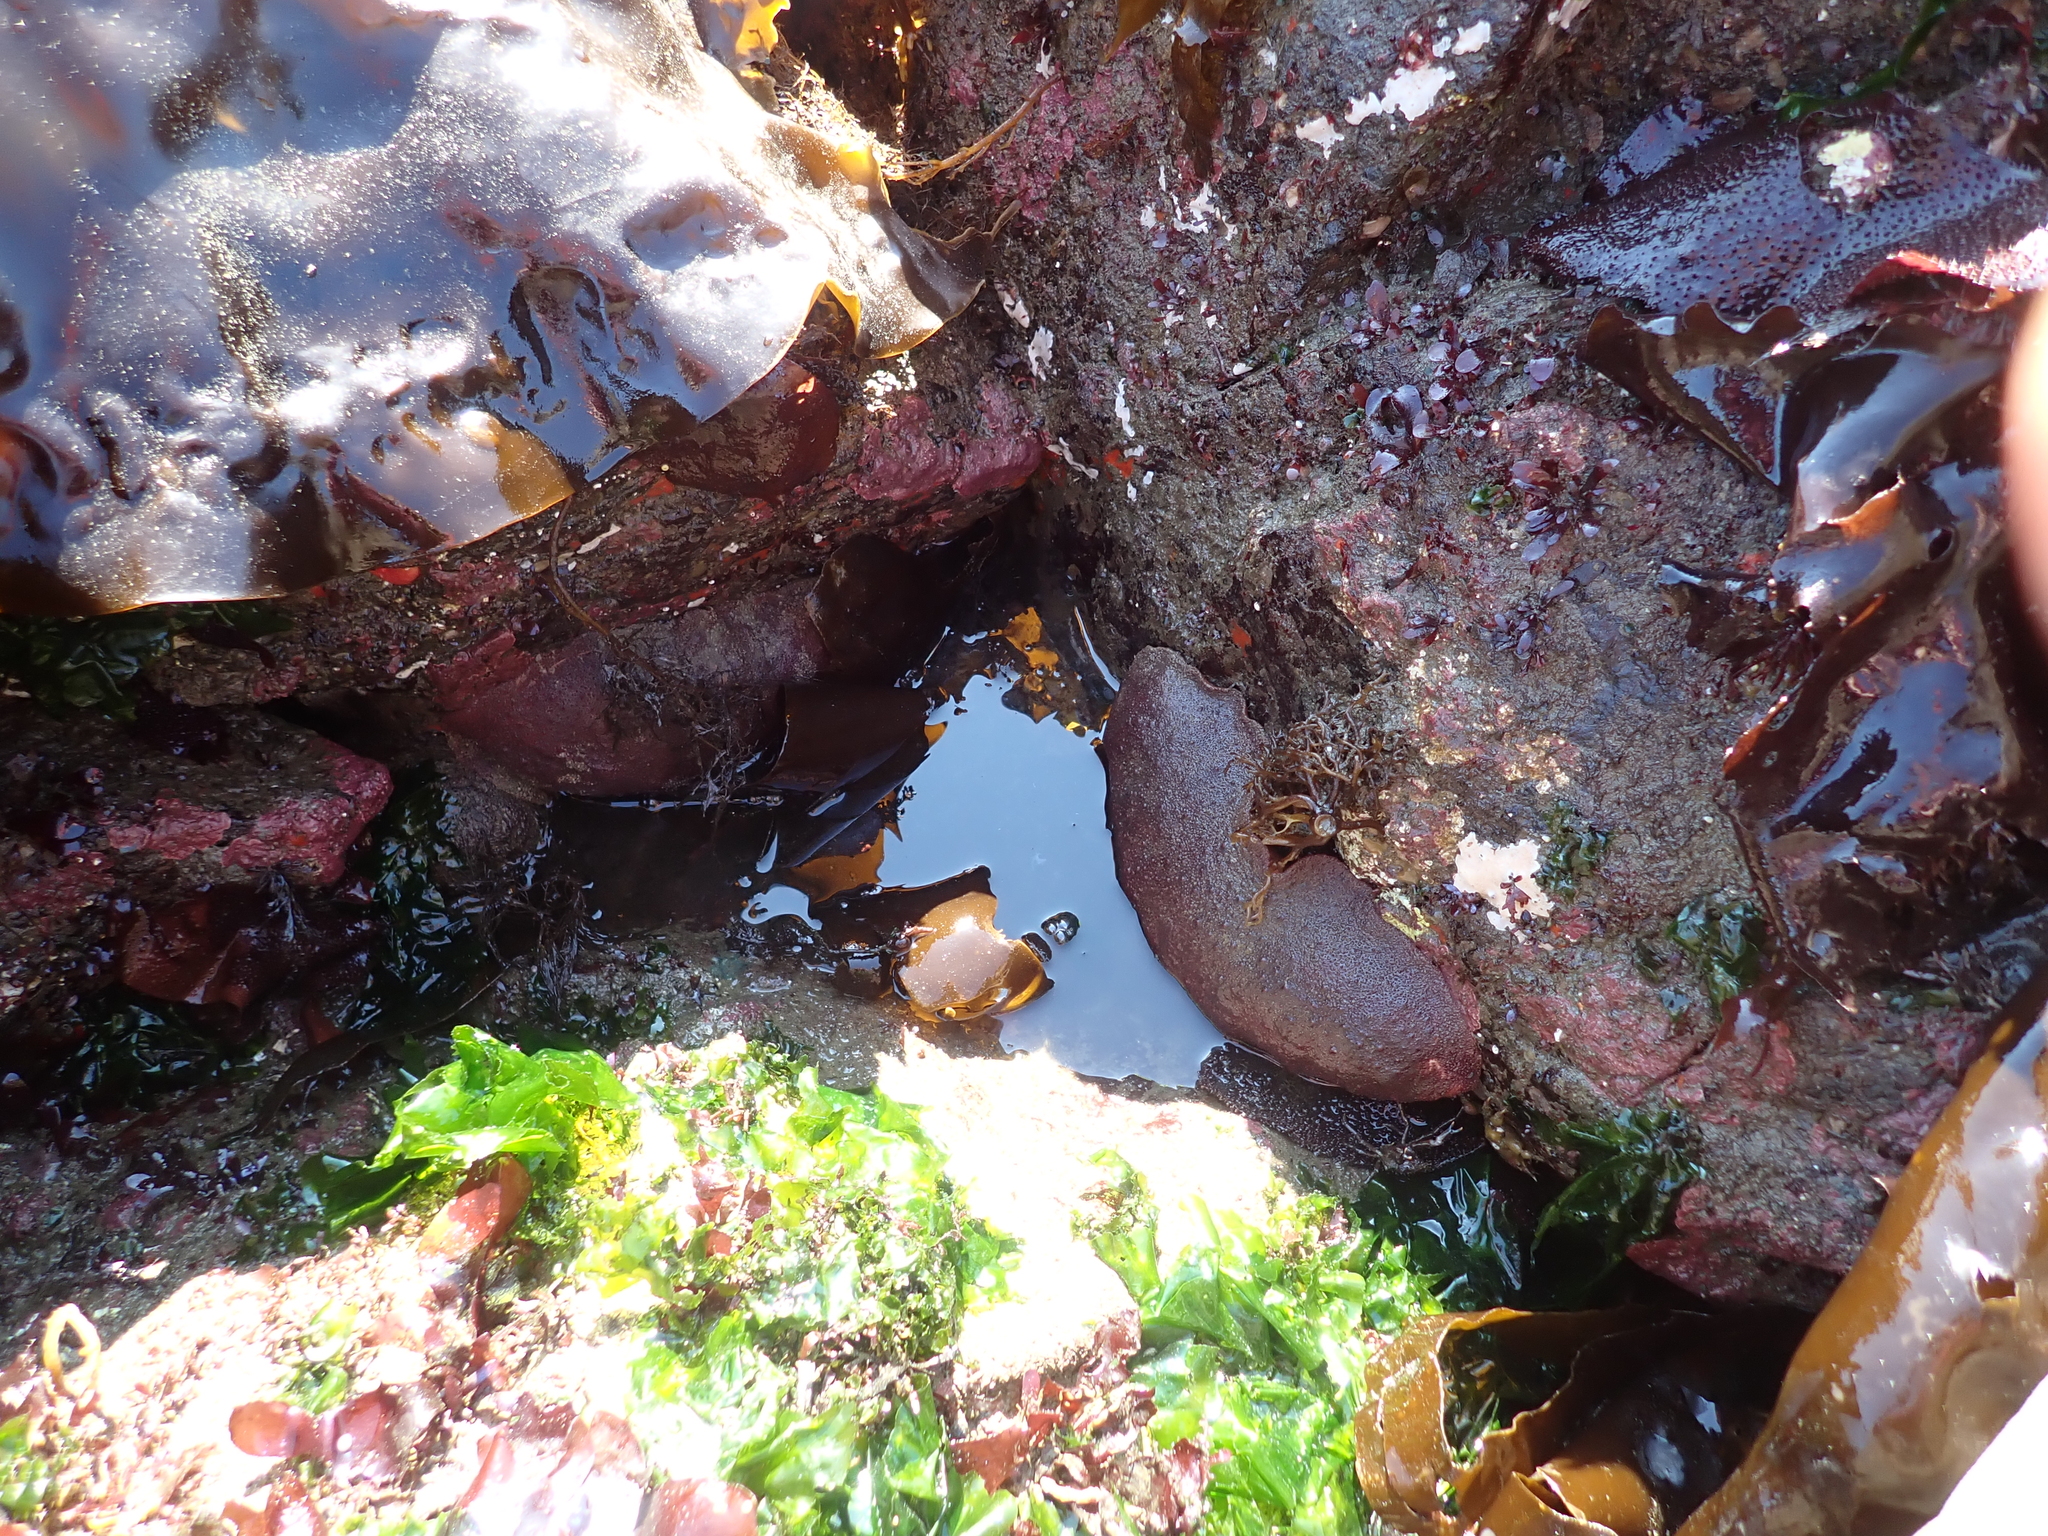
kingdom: Animalia
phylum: Mollusca
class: Polyplacophora
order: Chitonida
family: Acanthochitonidae
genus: Cryptochiton
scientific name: Cryptochiton stelleri
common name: Giant pacific chiton
